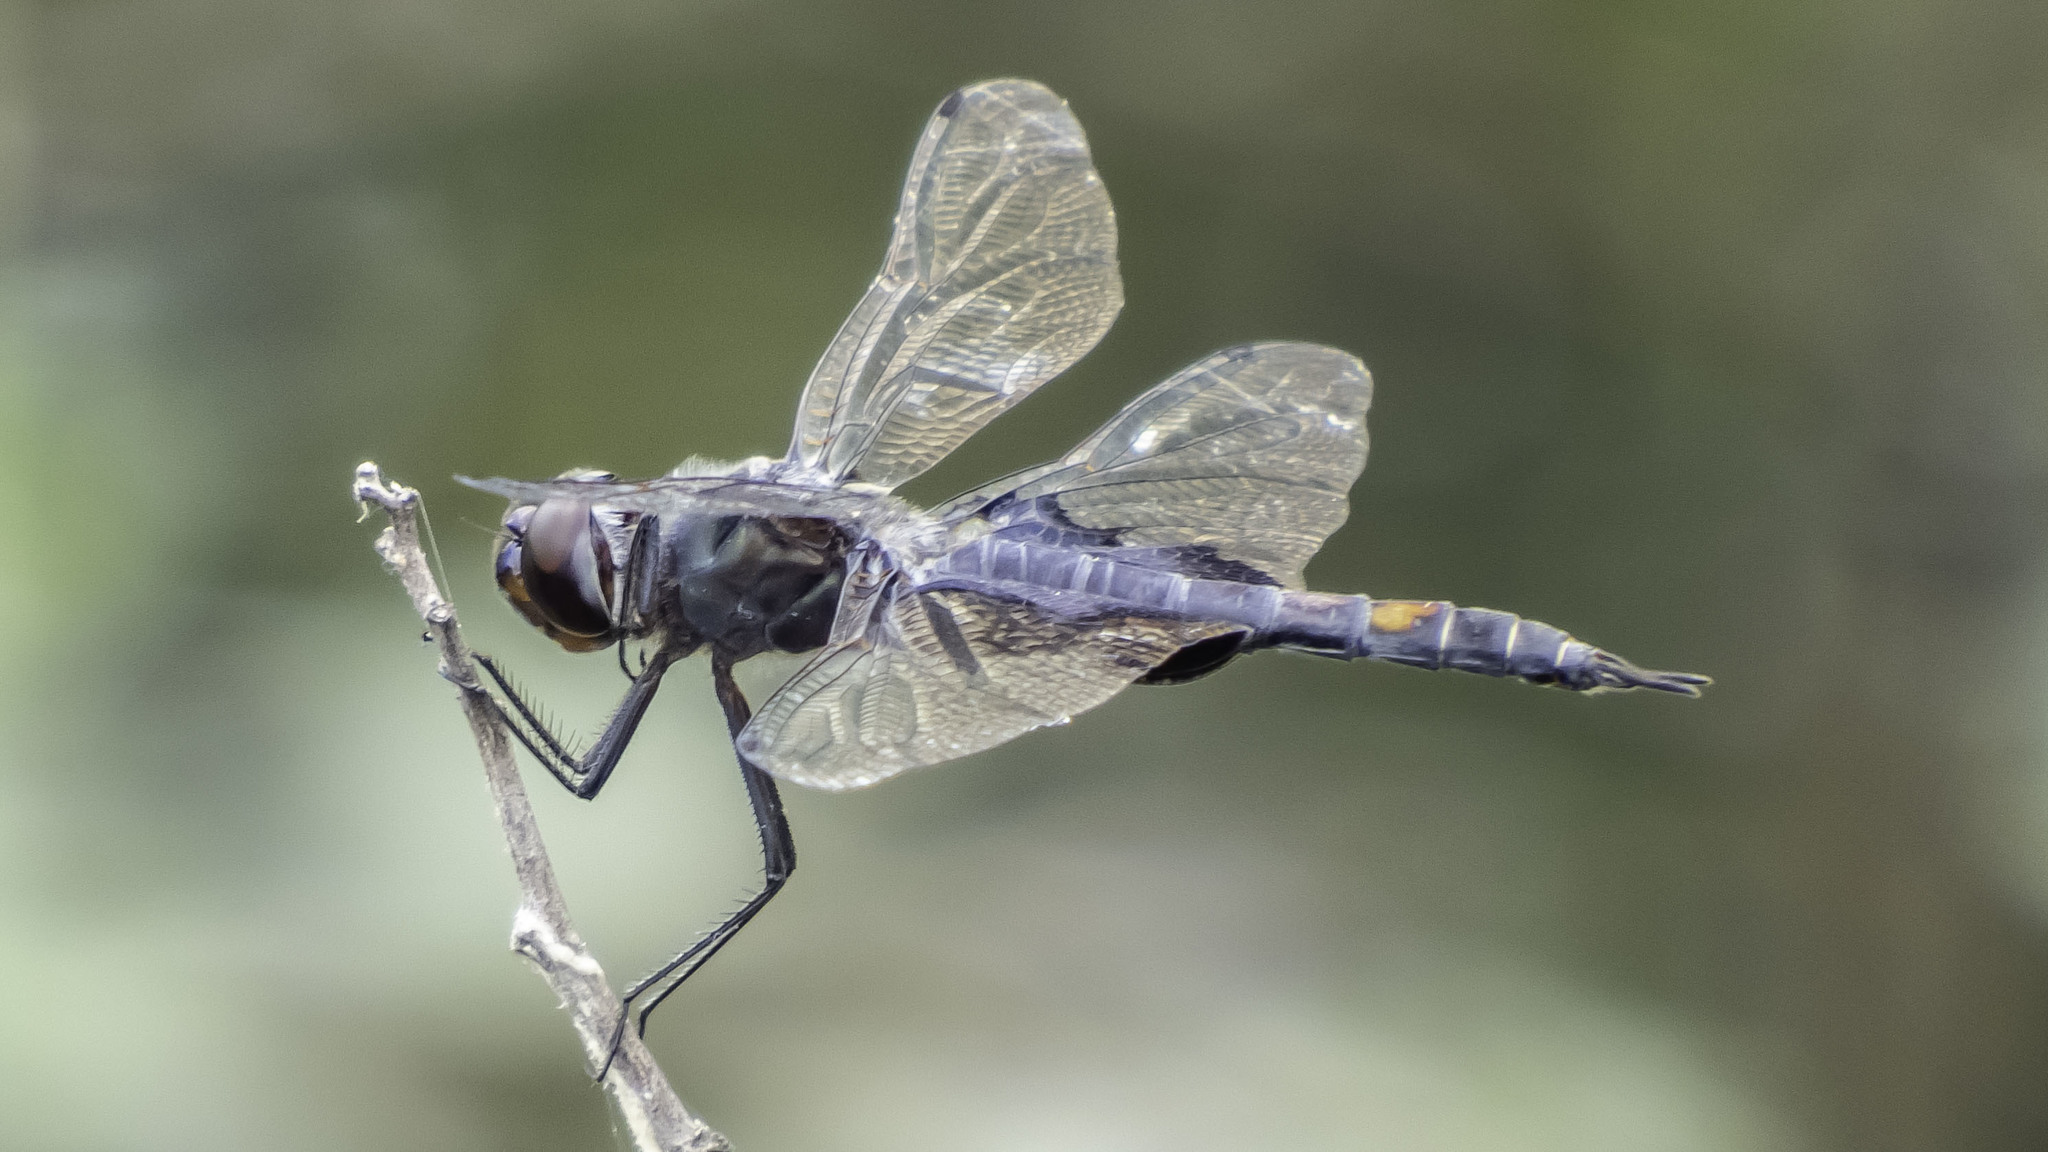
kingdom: Animalia
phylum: Arthropoda
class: Insecta
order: Odonata
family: Libellulidae
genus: Tramea
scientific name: Tramea lacerata
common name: Black saddlebags
